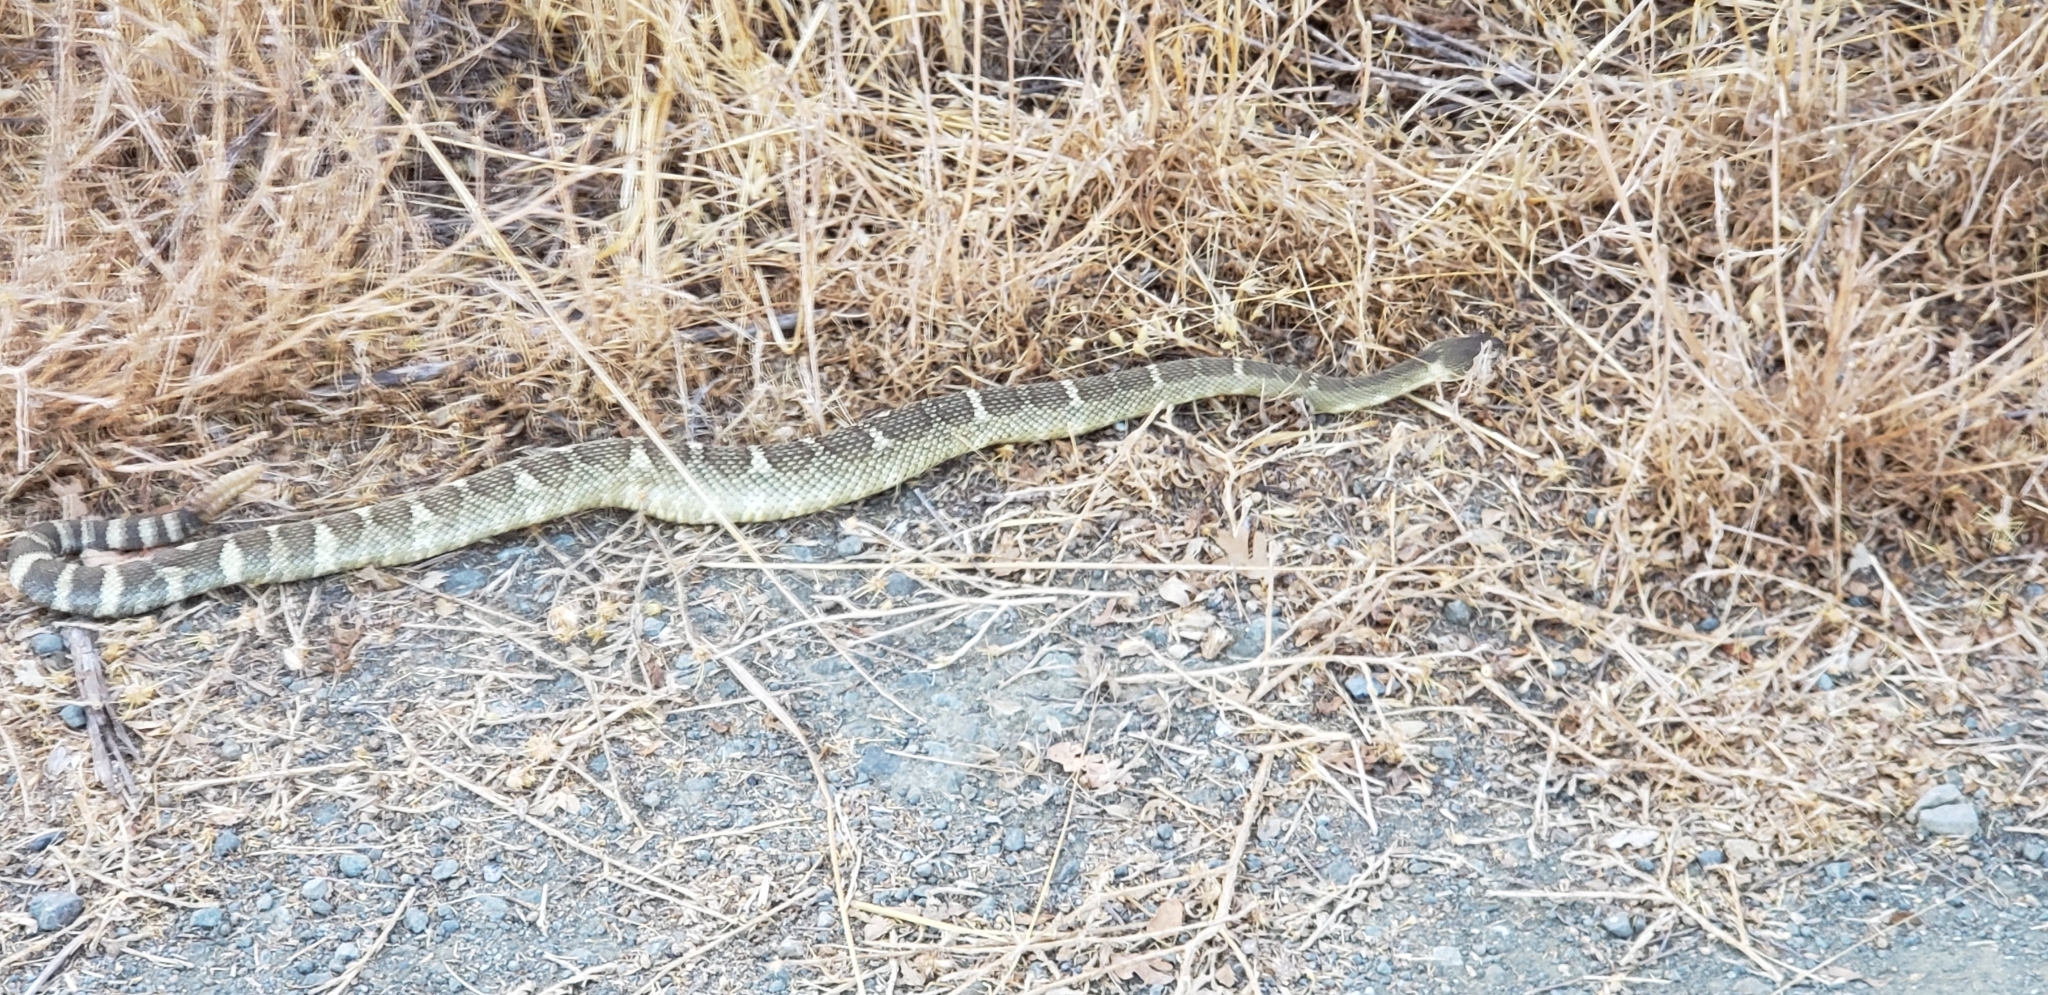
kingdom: Animalia
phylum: Chordata
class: Squamata
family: Viperidae
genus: Crotalus
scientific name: Crotalus oreganus
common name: Abyssus
